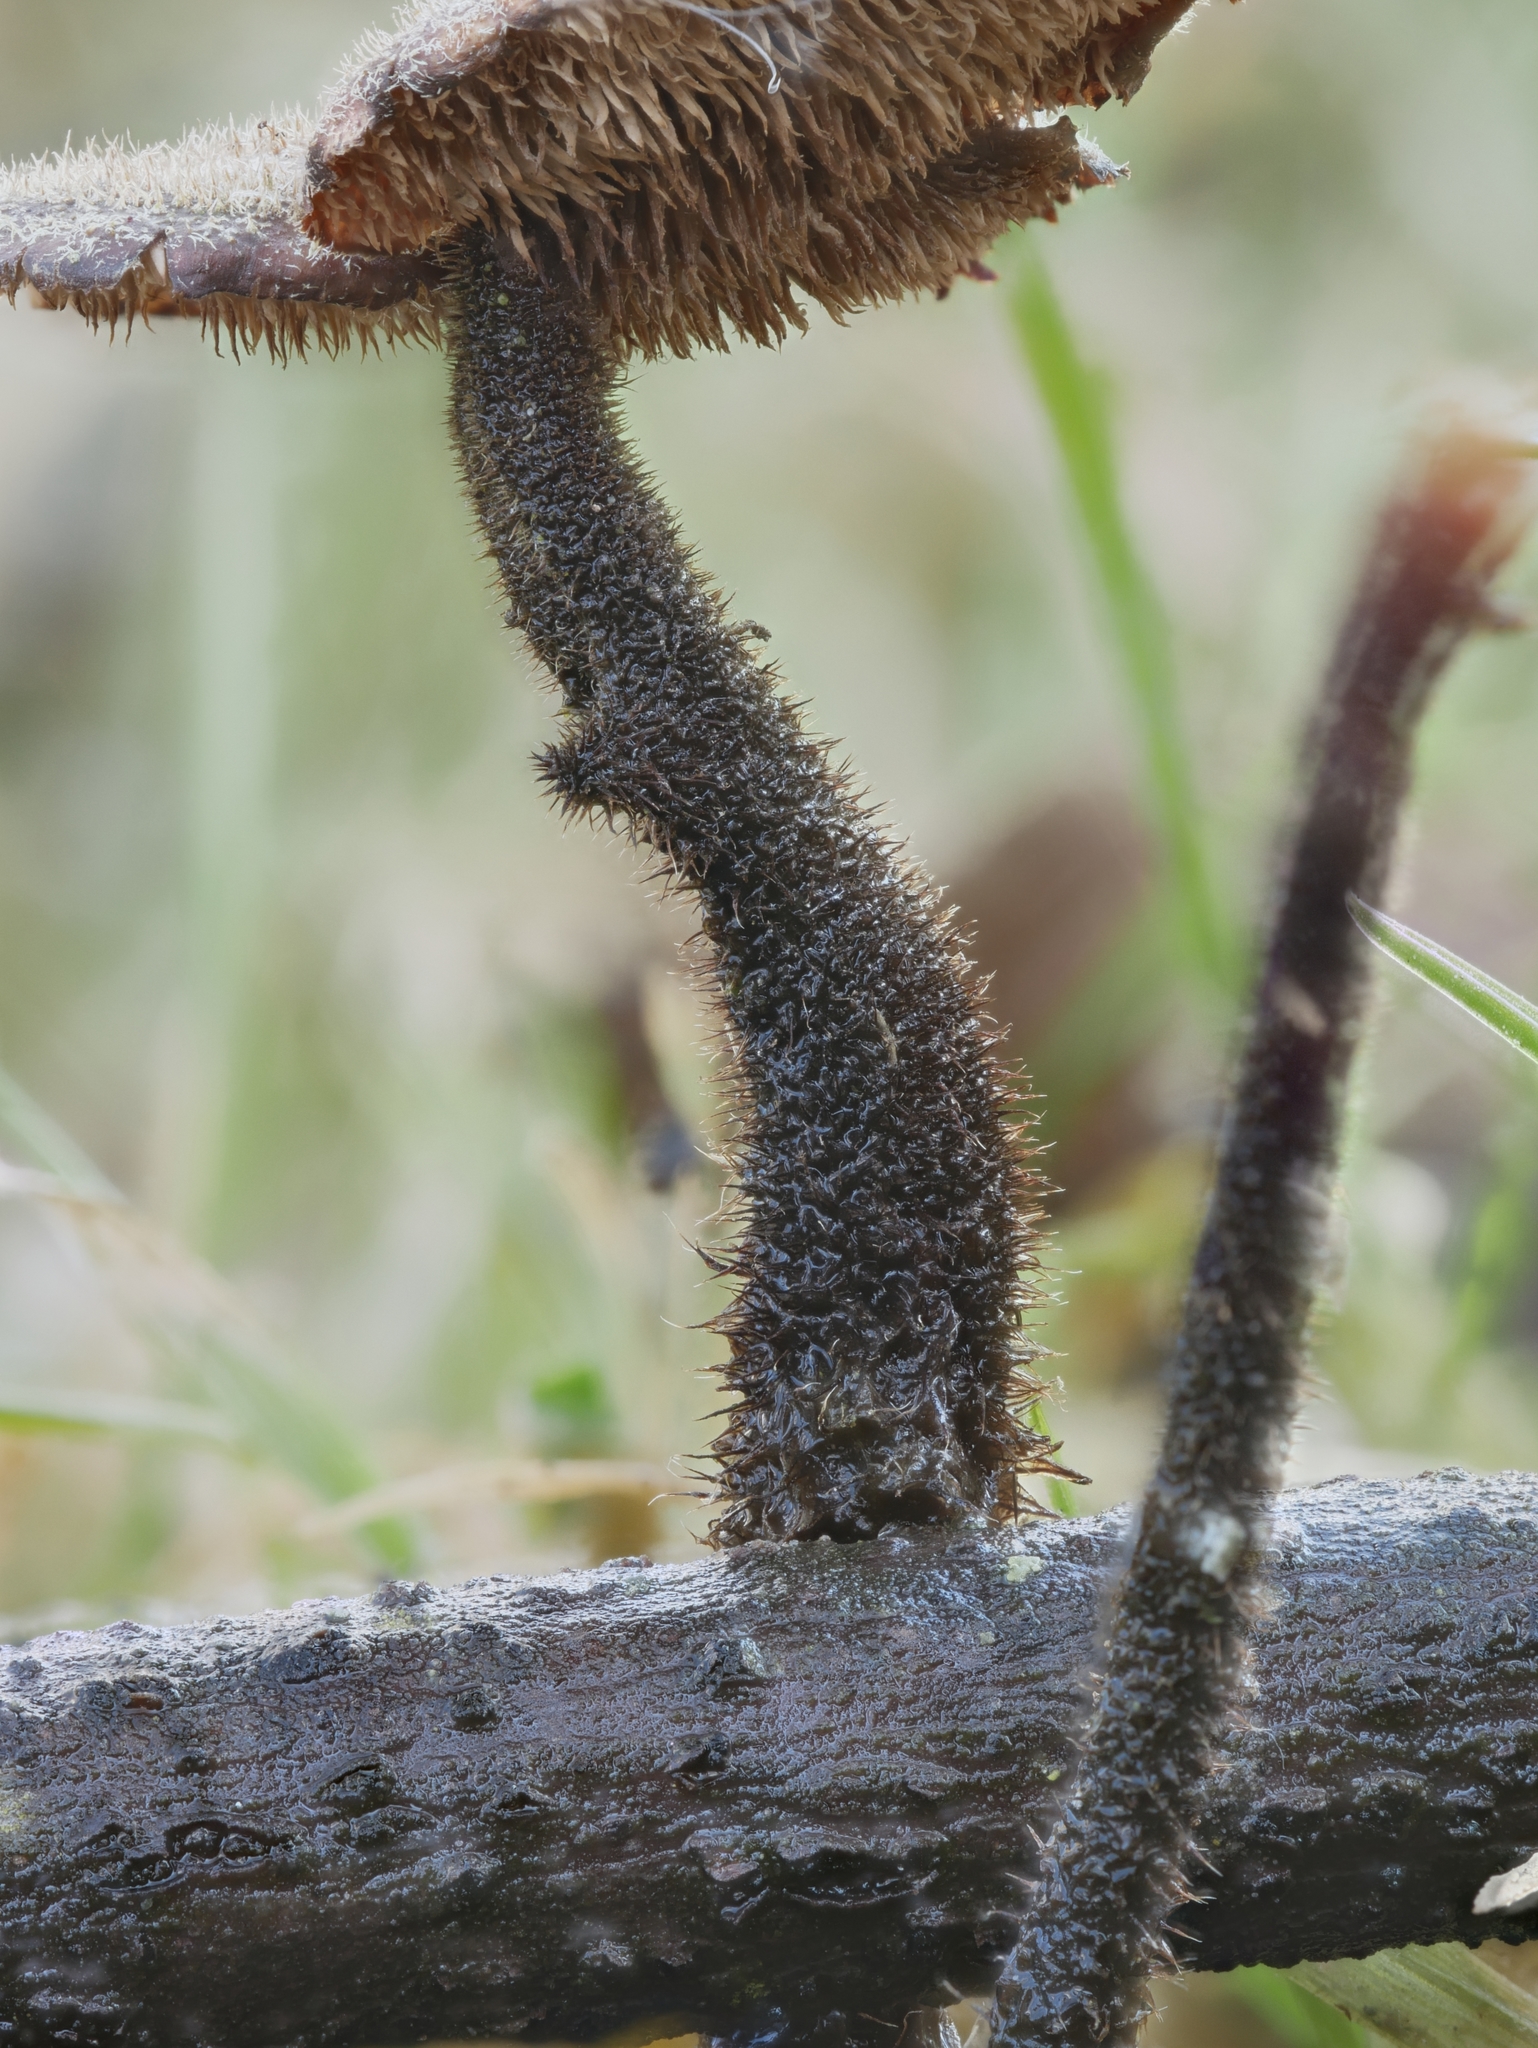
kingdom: Fungi
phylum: Basidiomycota
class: Agaricomycetes
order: Russulales
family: Auriscalpiaceae
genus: Auriscalpium
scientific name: Auriscalpium vulgare
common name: Earpick fungus
